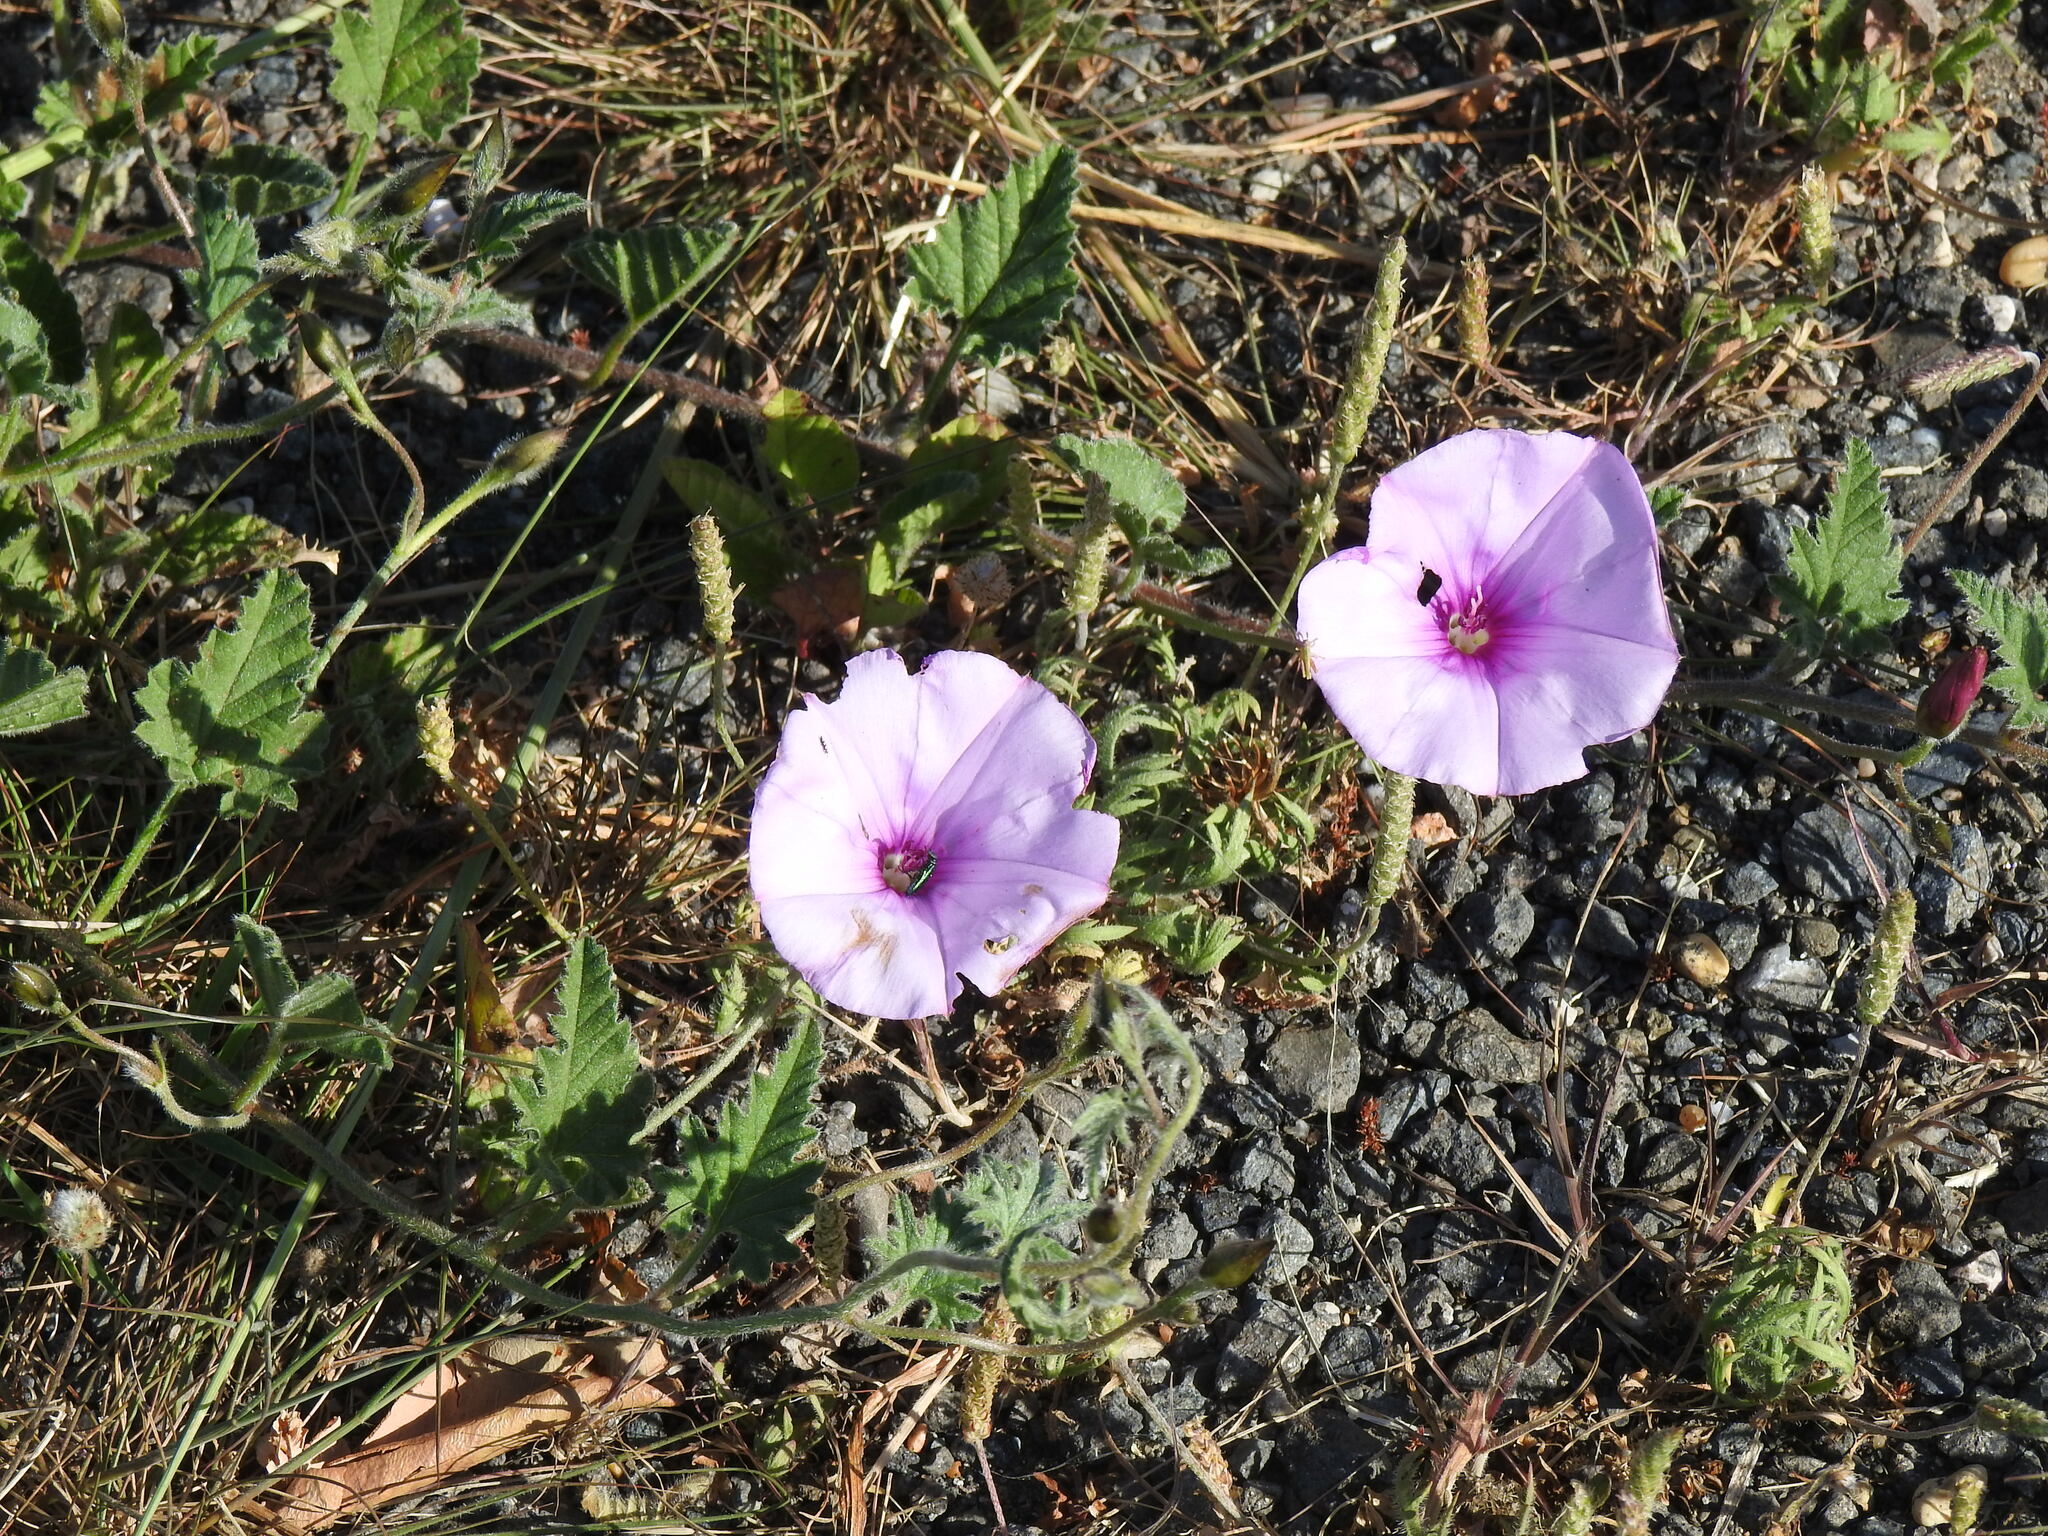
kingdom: Plantae
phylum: Tracheophyta
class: Magnoliopsida
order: Solanales
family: Convolvulaceae
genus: Convolvulus
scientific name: Convolvulus althaeoides
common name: Mallow bindweed
